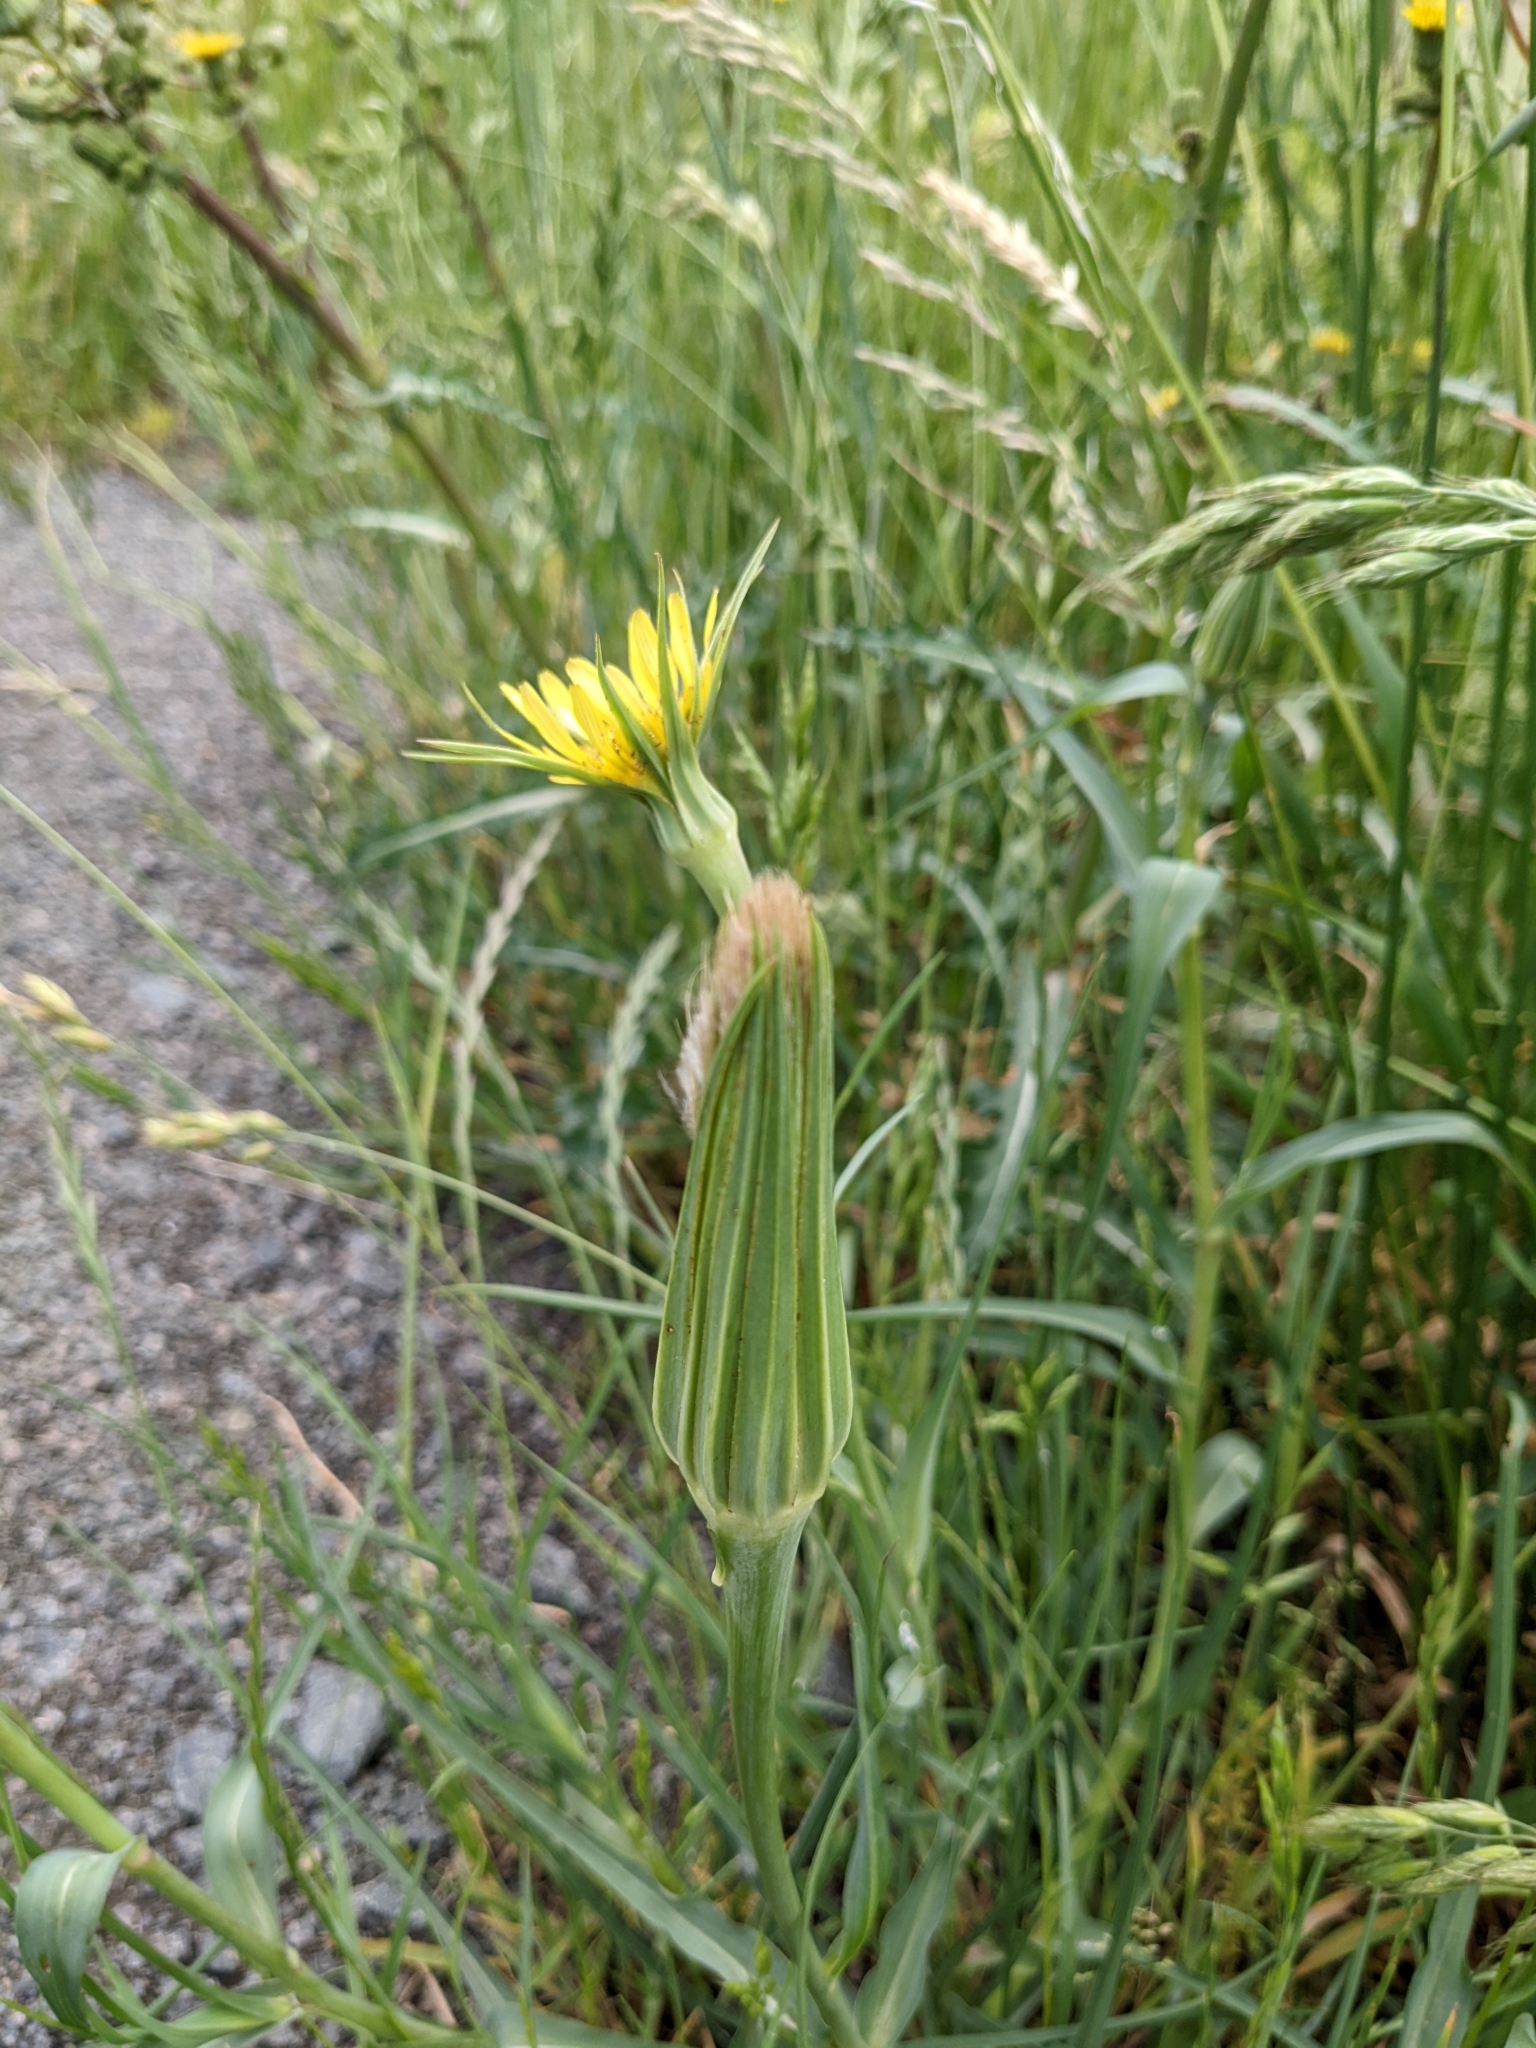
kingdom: Plantae
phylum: Tracheophyta
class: Magnoliopsida
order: Asterales
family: Asteraceae
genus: Tragopogon
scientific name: Tragopogon dubius
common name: Yellow salsify
